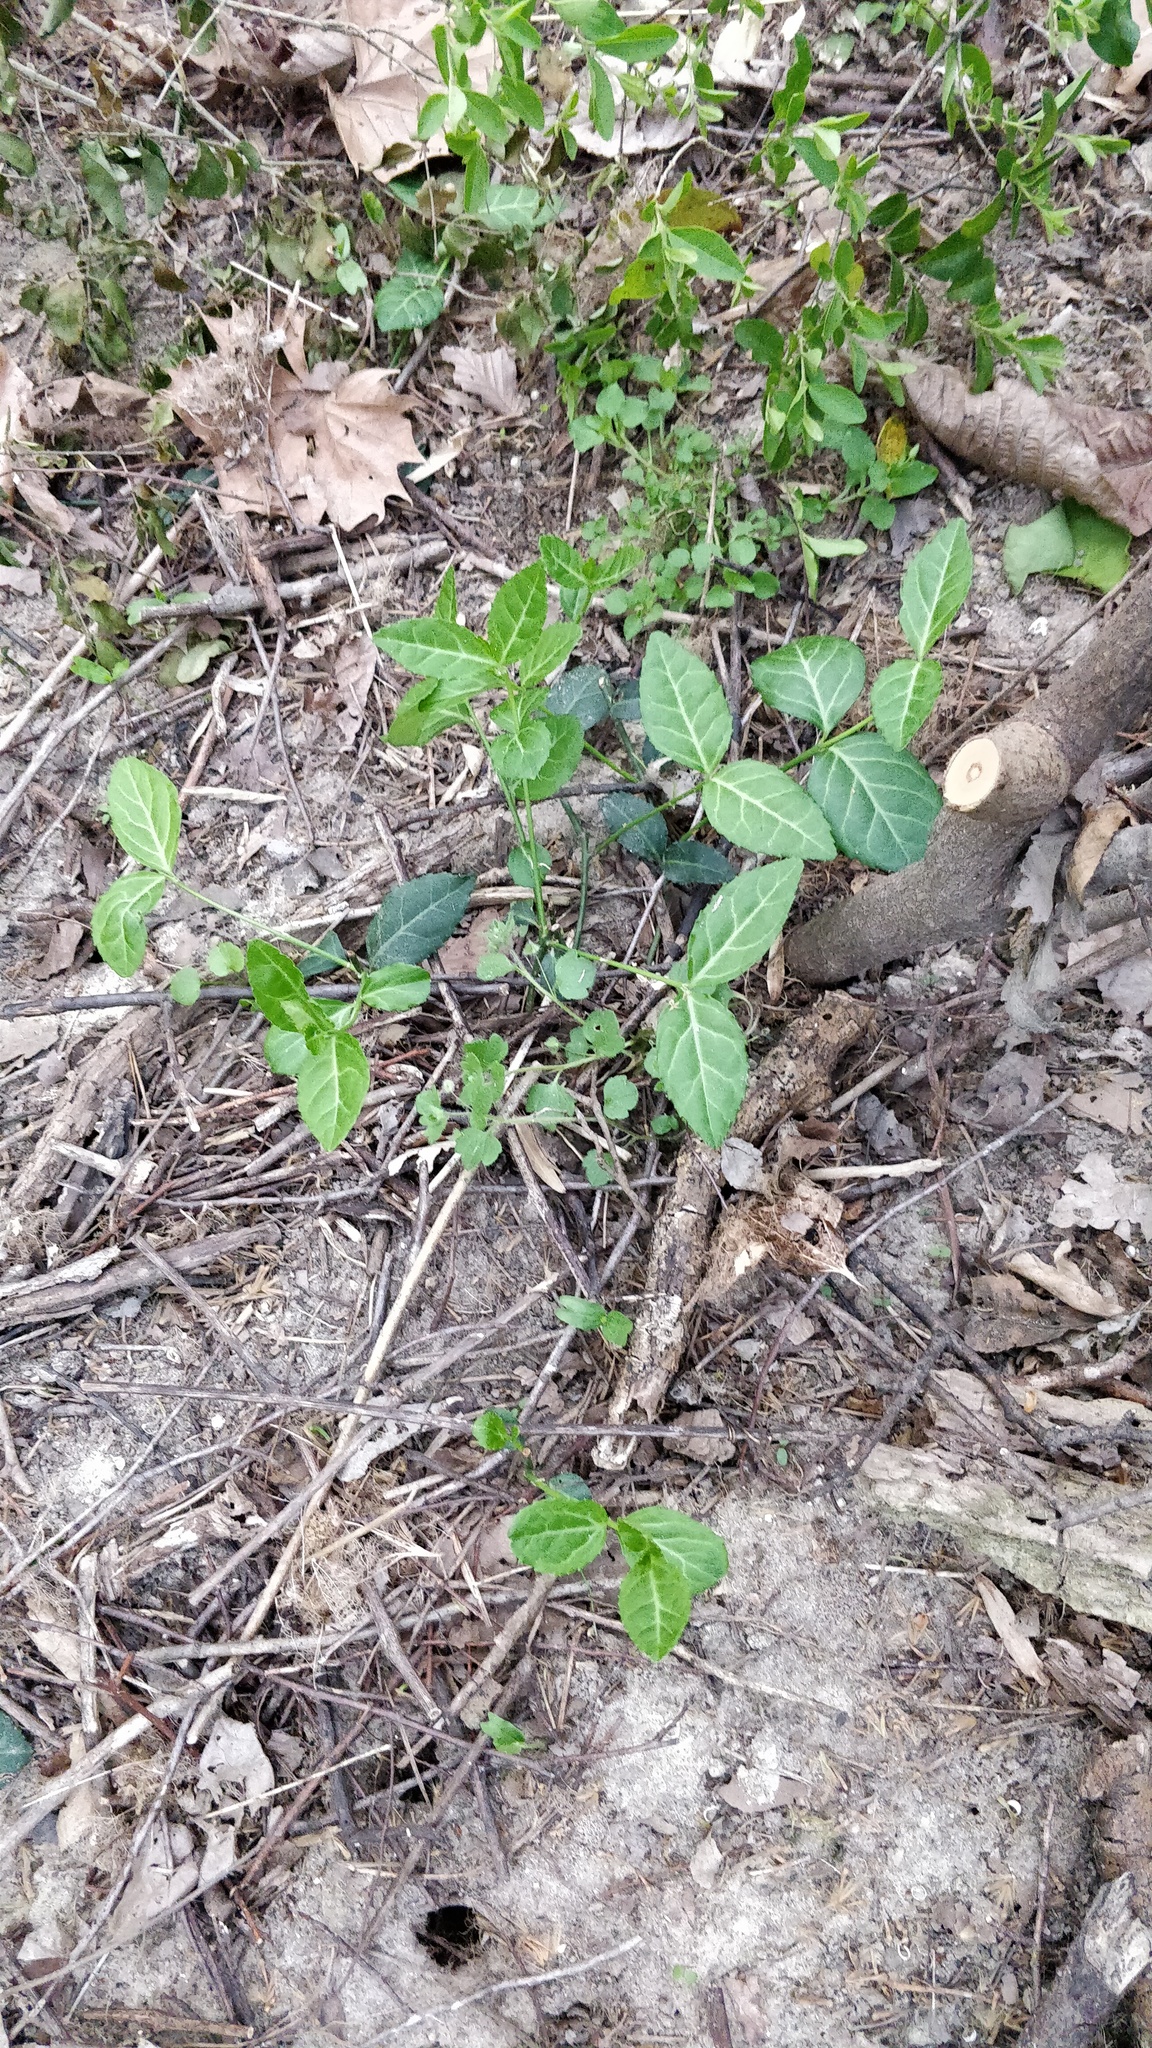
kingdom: Plantae
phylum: Tracheophyta
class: Magnoliopsida
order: Celastrales
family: Celastraceae
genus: Euonymus
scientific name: Euonymus fortunei
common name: Climbing euonymus
